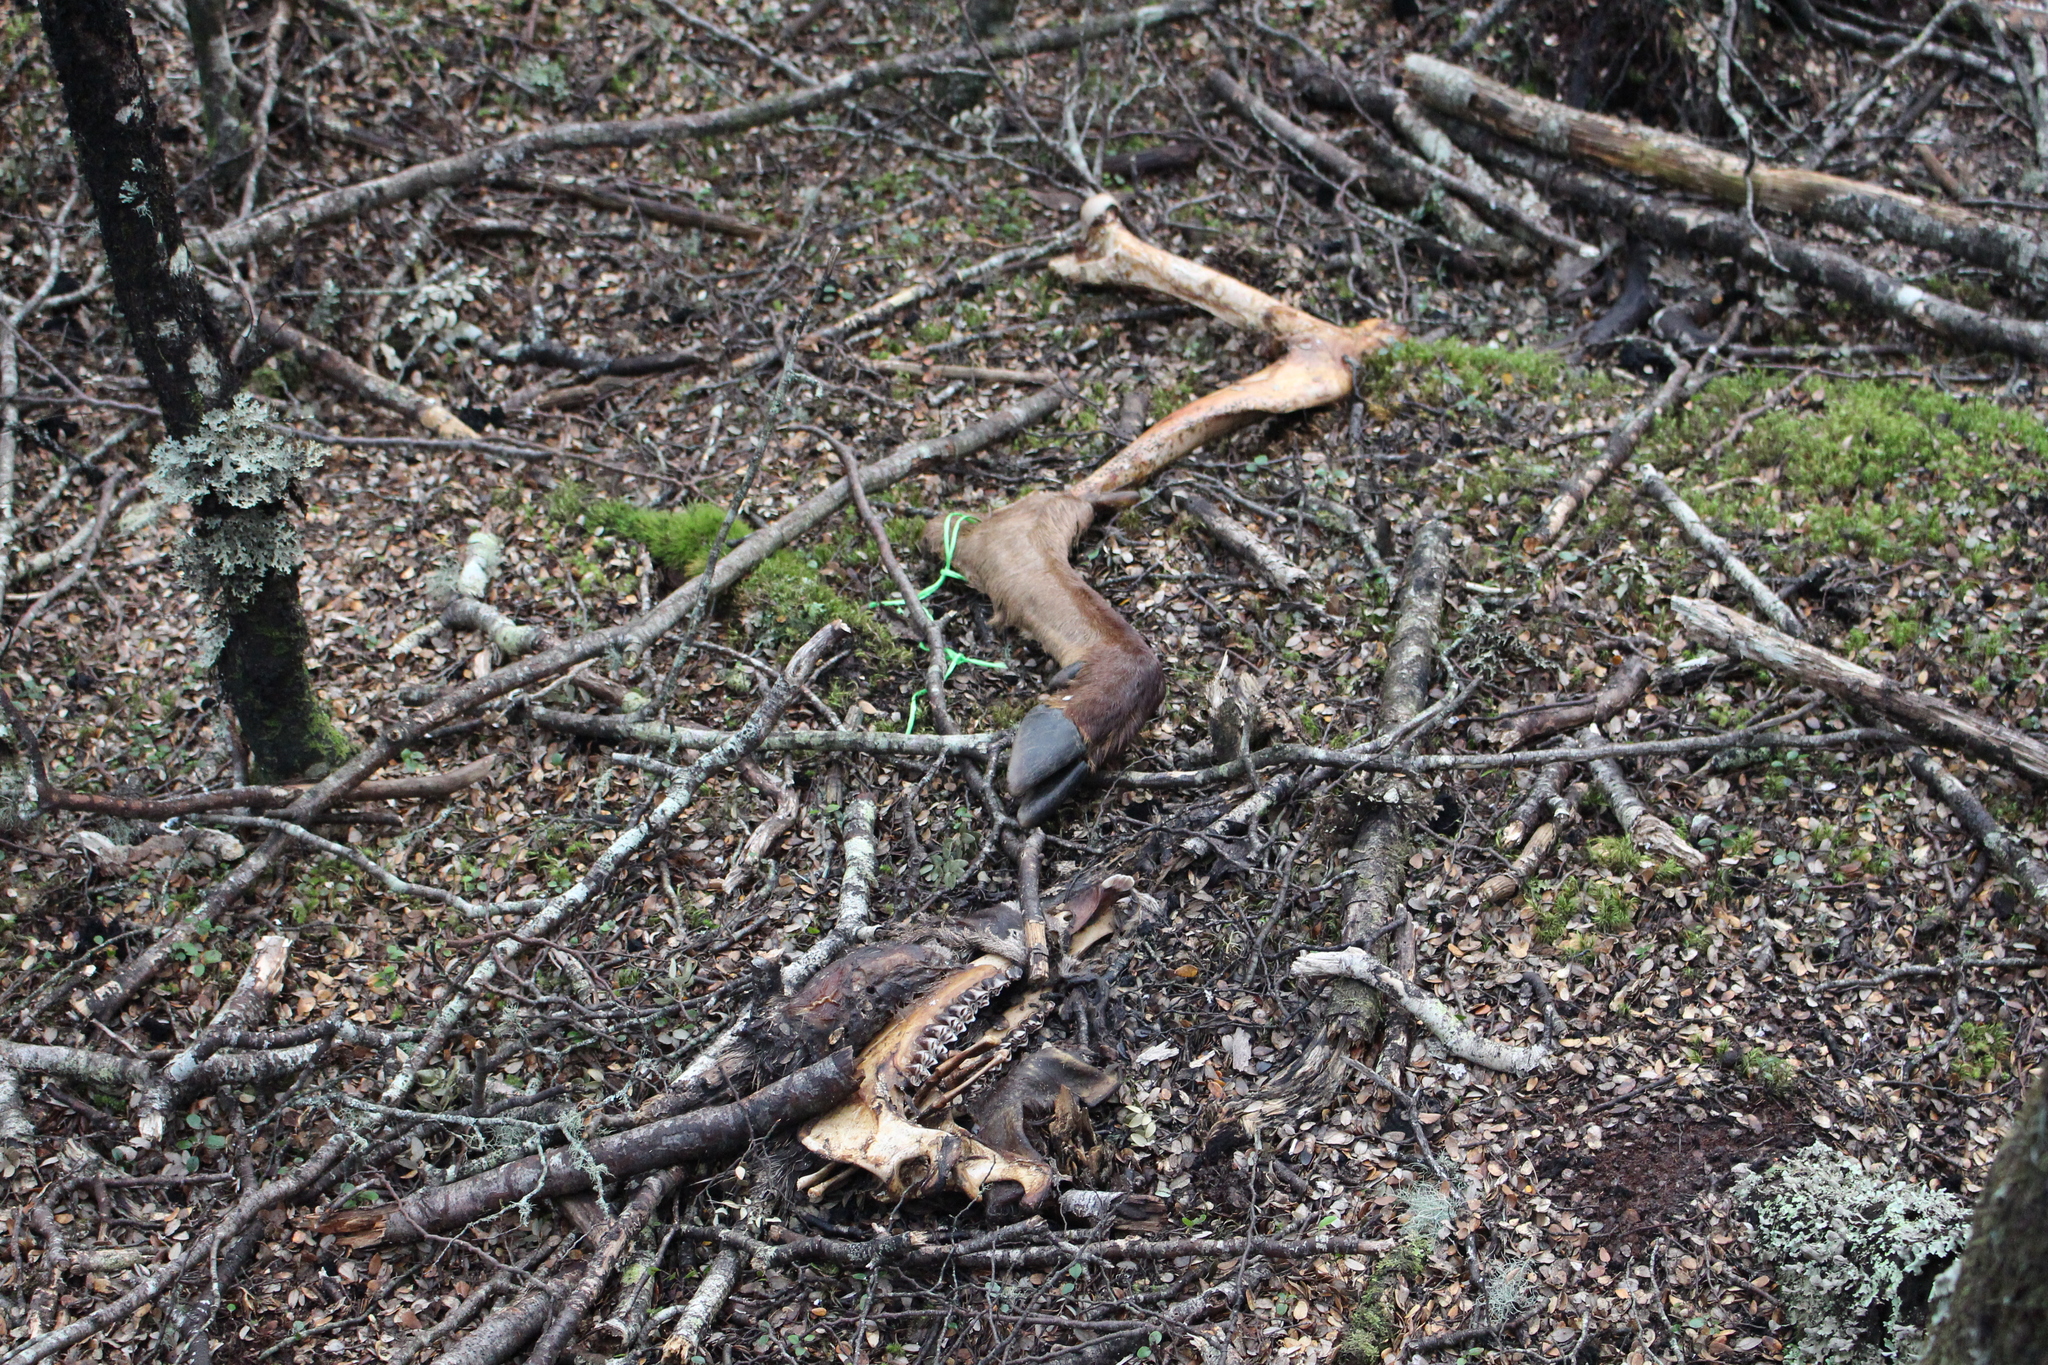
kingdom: Animalia
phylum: Chordata
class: Mammalia
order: Artiodactyla
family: Cervidae
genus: Cervus
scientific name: Cervus elaphus
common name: Red deer
